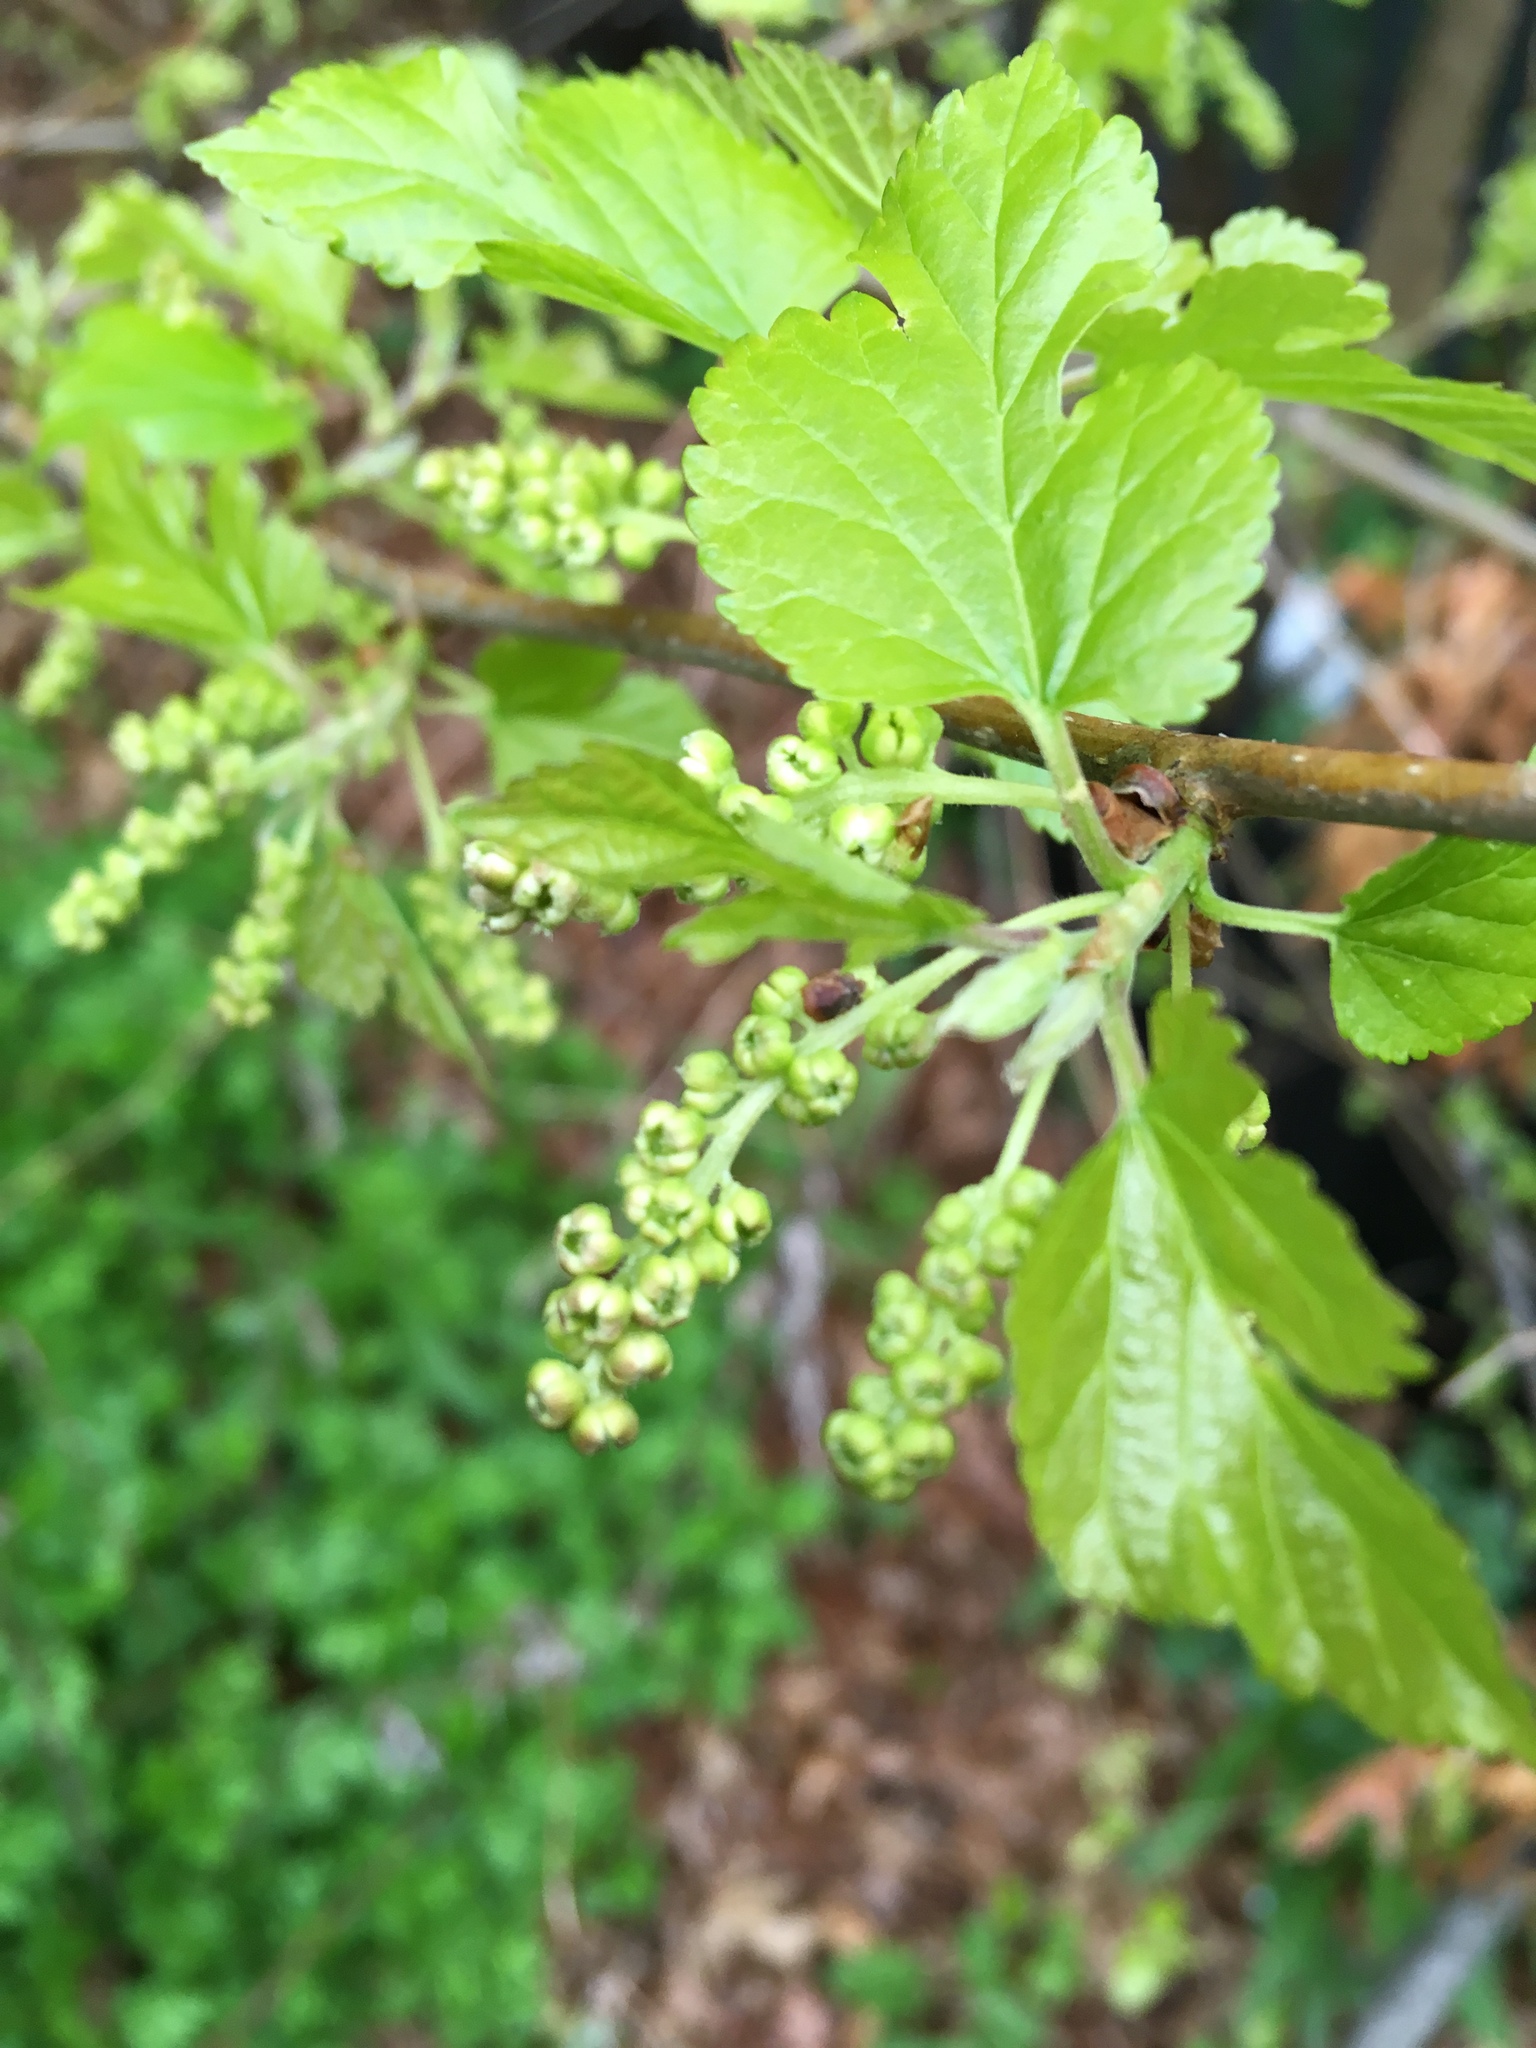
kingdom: Plantae
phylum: Tracheophyta
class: Magnoliopsida
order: Rosales
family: Moraceae
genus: Morus
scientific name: Morus alba
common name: White mulberry
